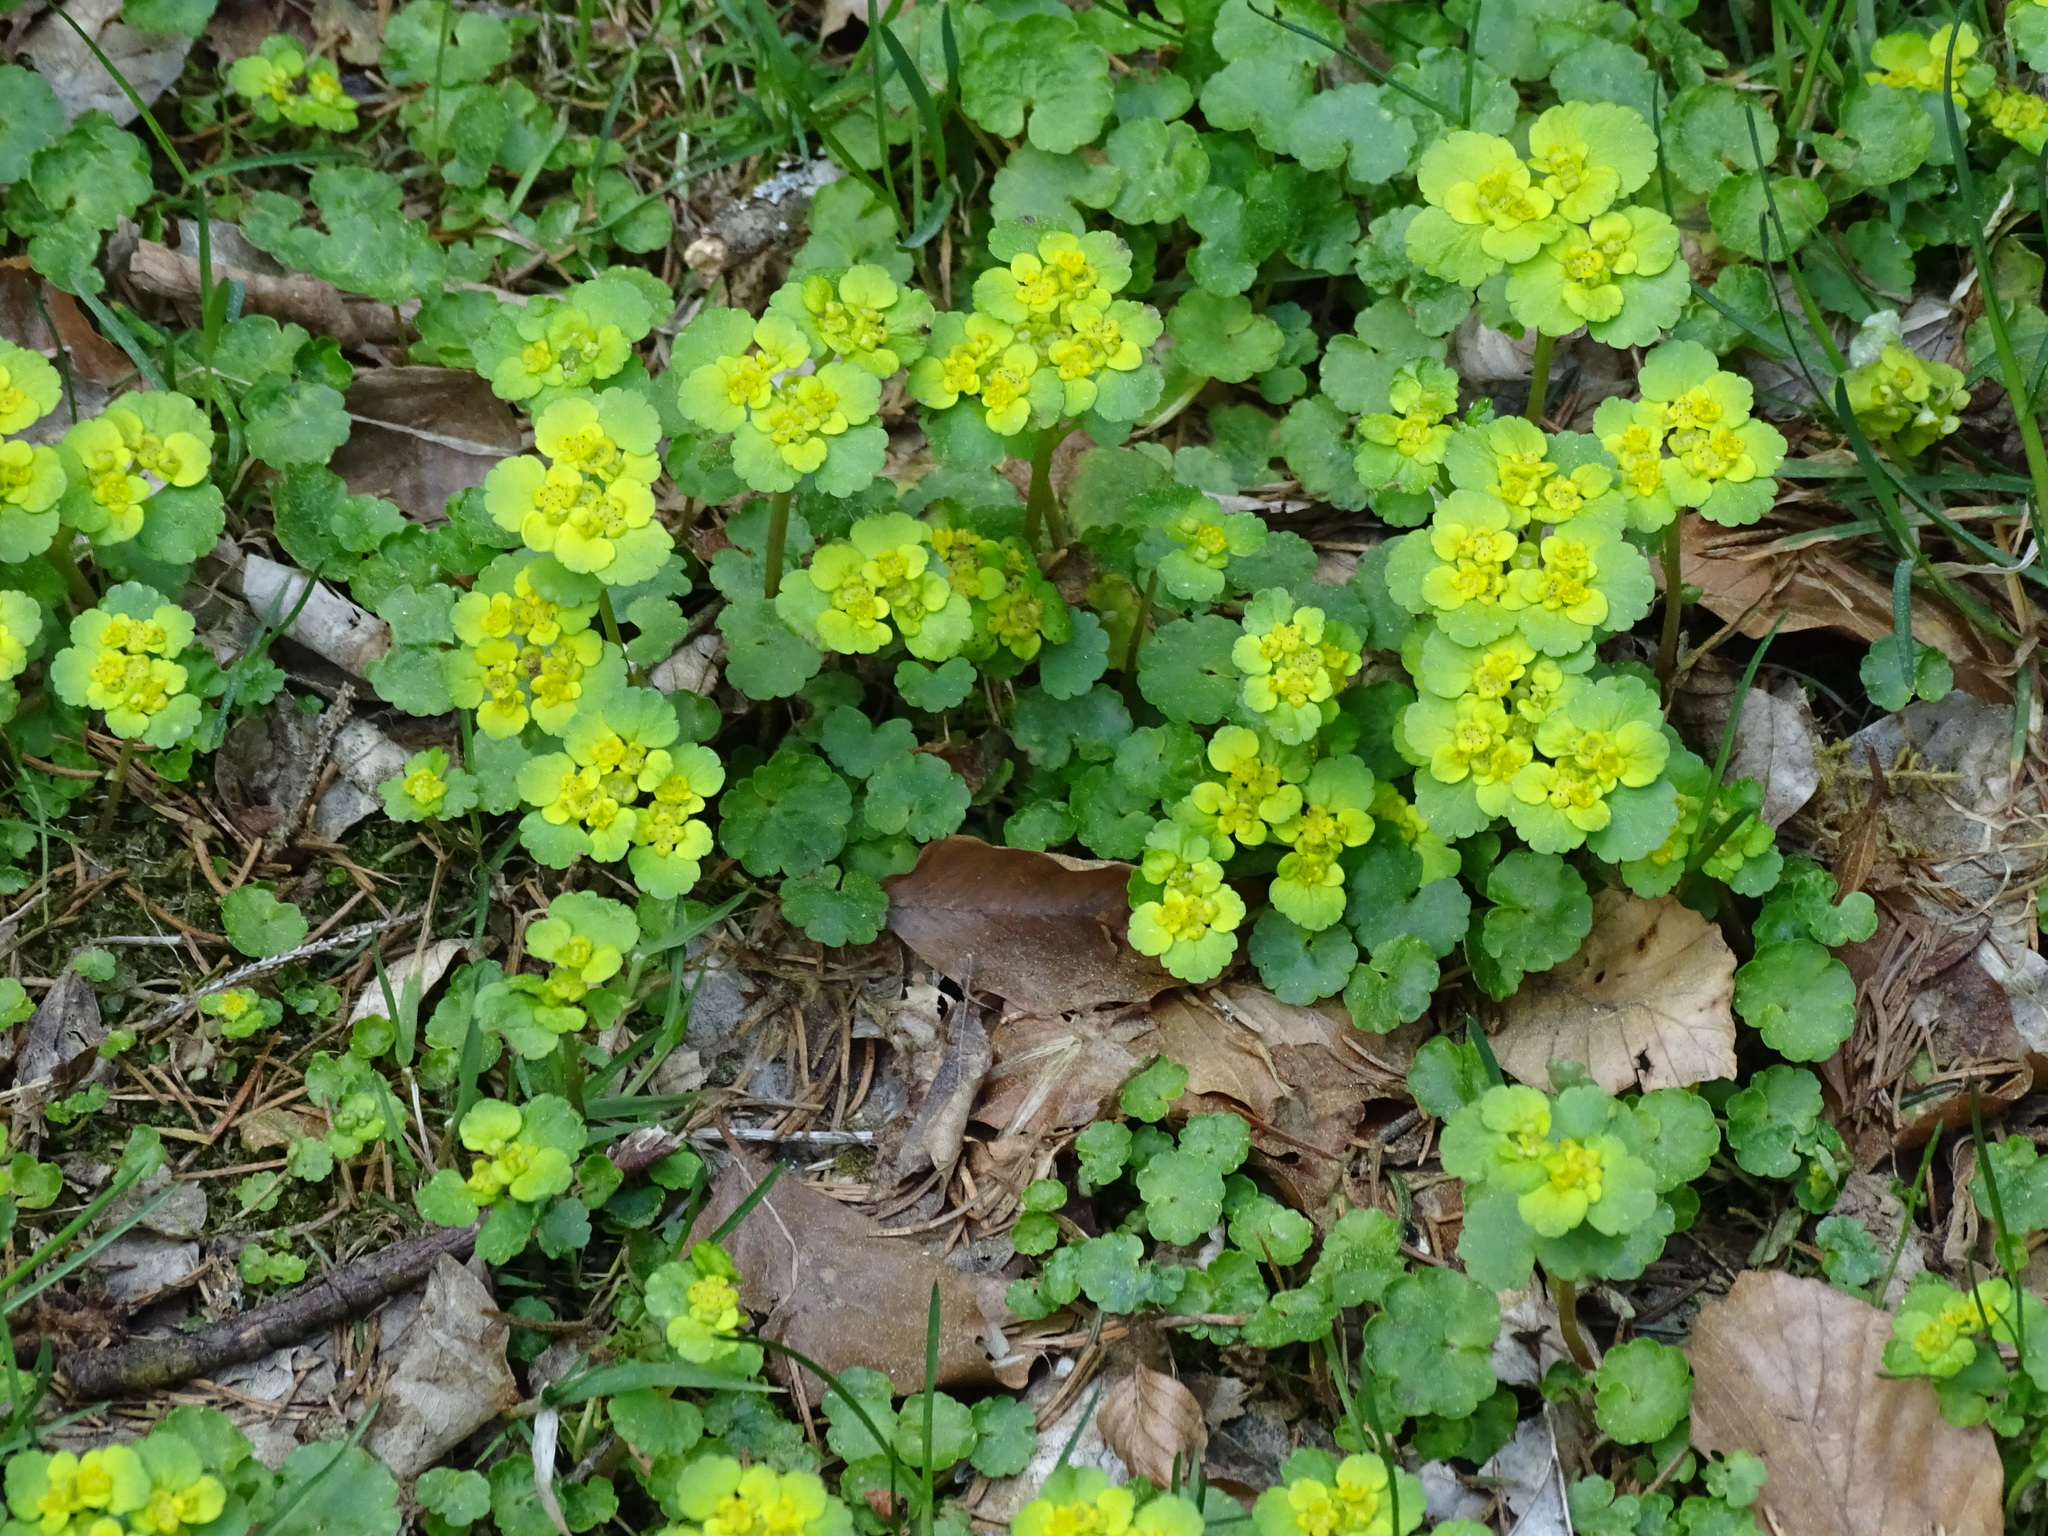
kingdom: Plantae
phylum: Tracheophyta
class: Magnoliopsida
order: Saxifragales
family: Saxifragaceae
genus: Chrysosplenium
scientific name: Chrysosplenium alternifolium
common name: Alternate-leaved golden-saxifrage
